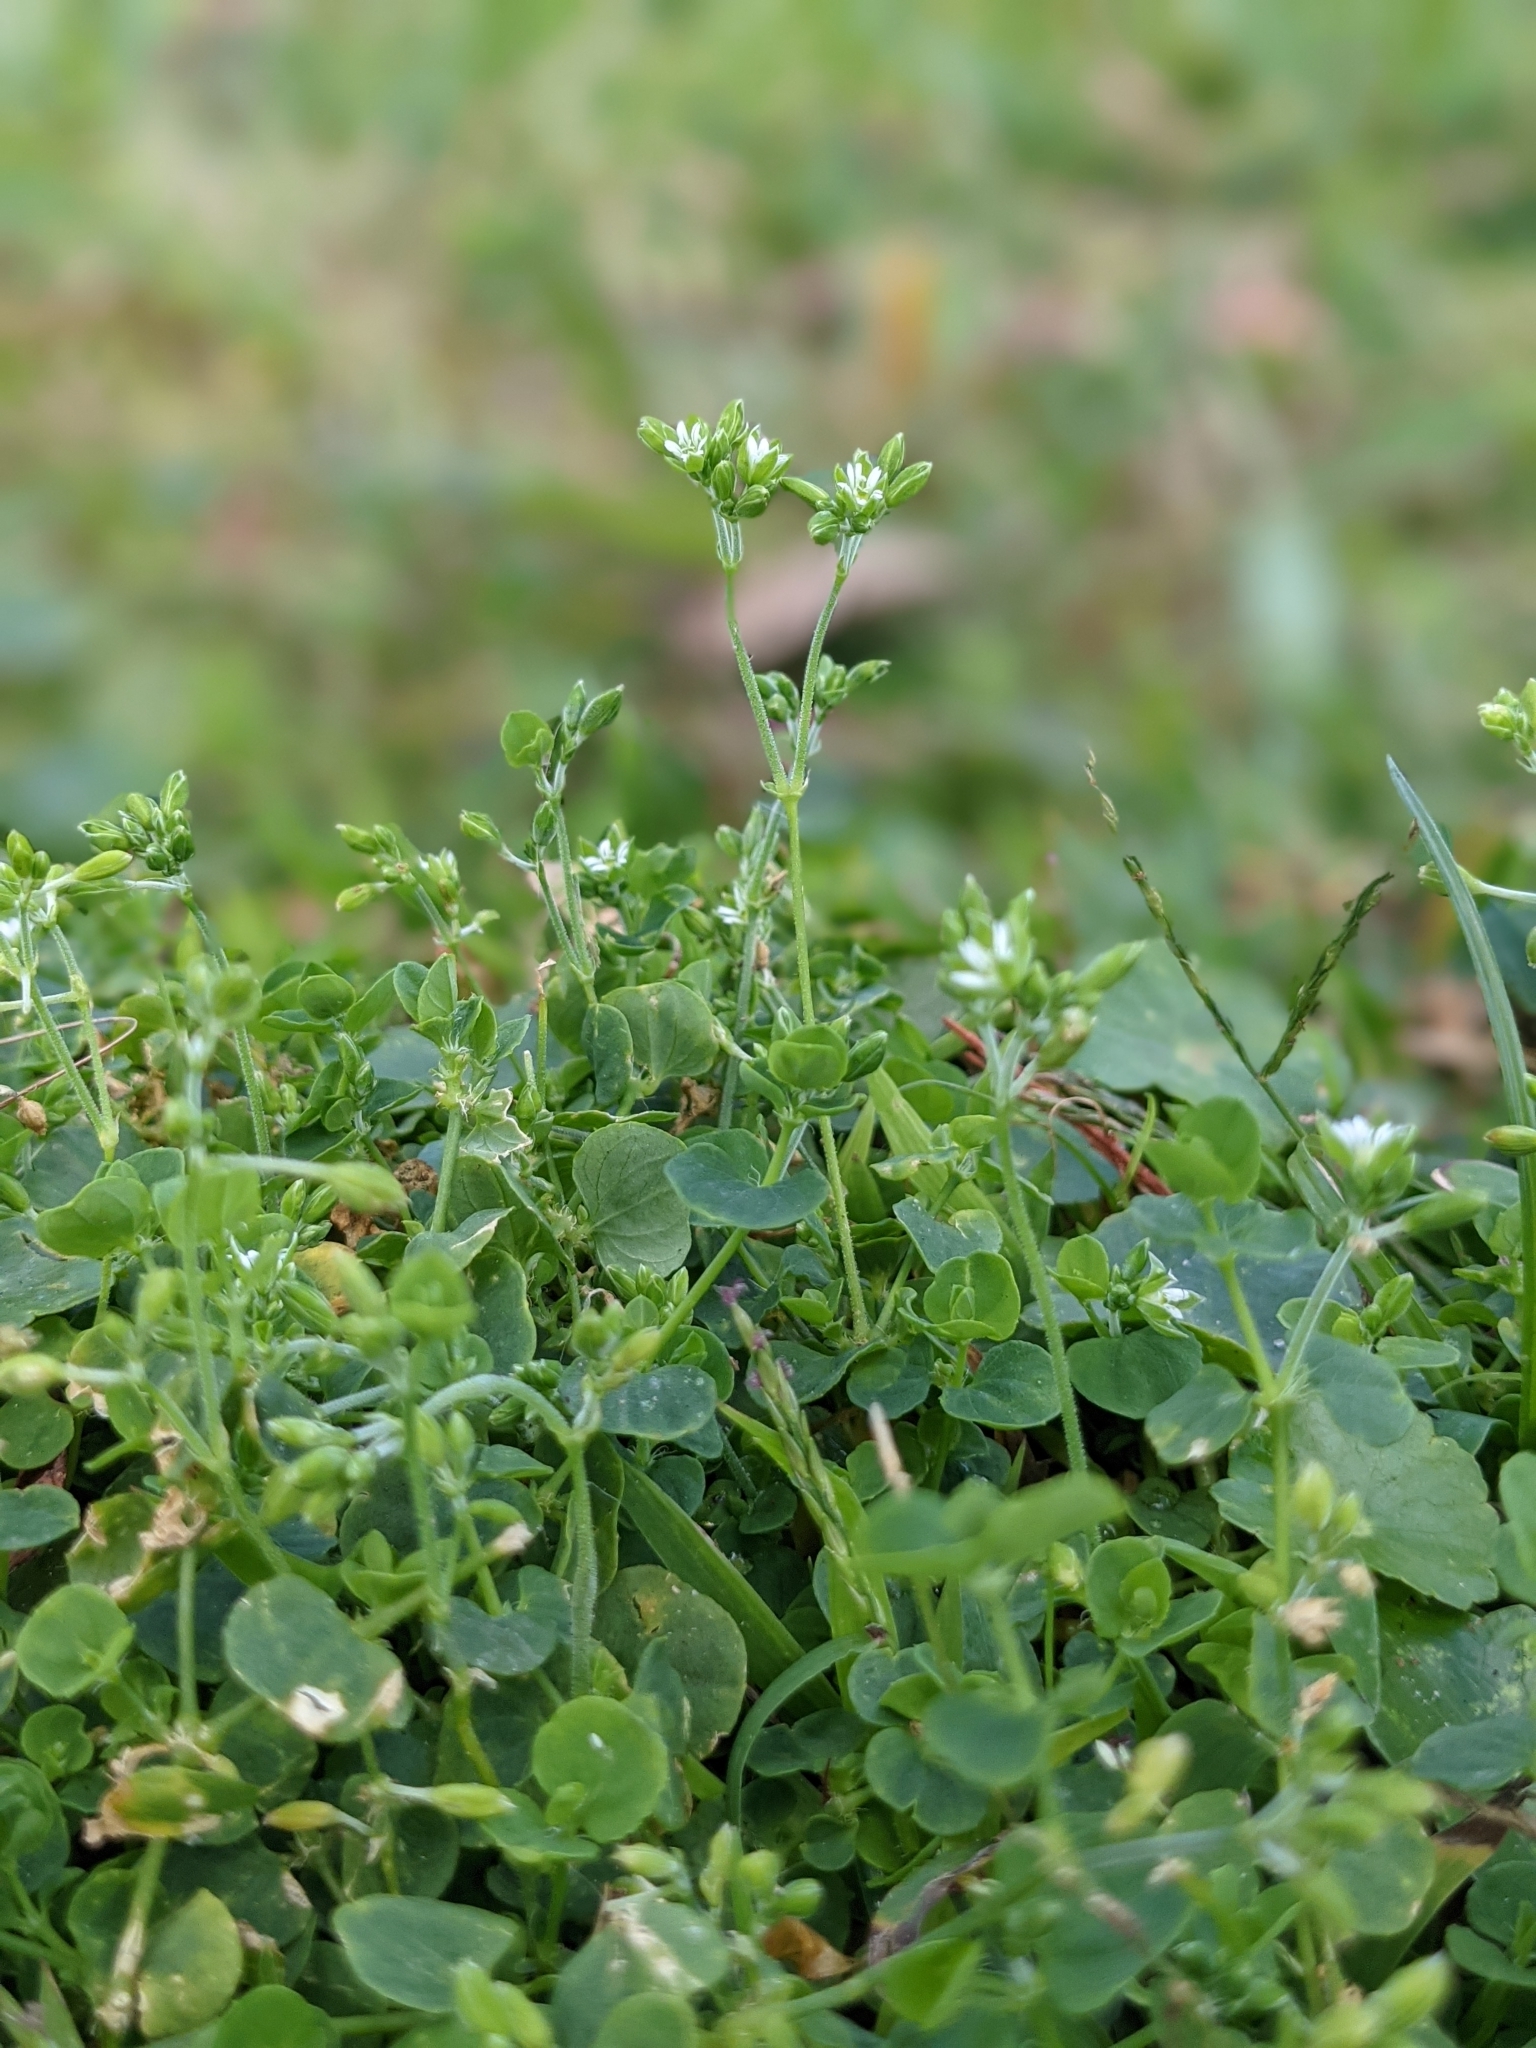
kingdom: Plantae
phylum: Tracheophyta
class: Magnoliopsida
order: Caryophyllales
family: Caryophyllaceae
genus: Drymaria
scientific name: Drymaria cordata
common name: Whitesnow
